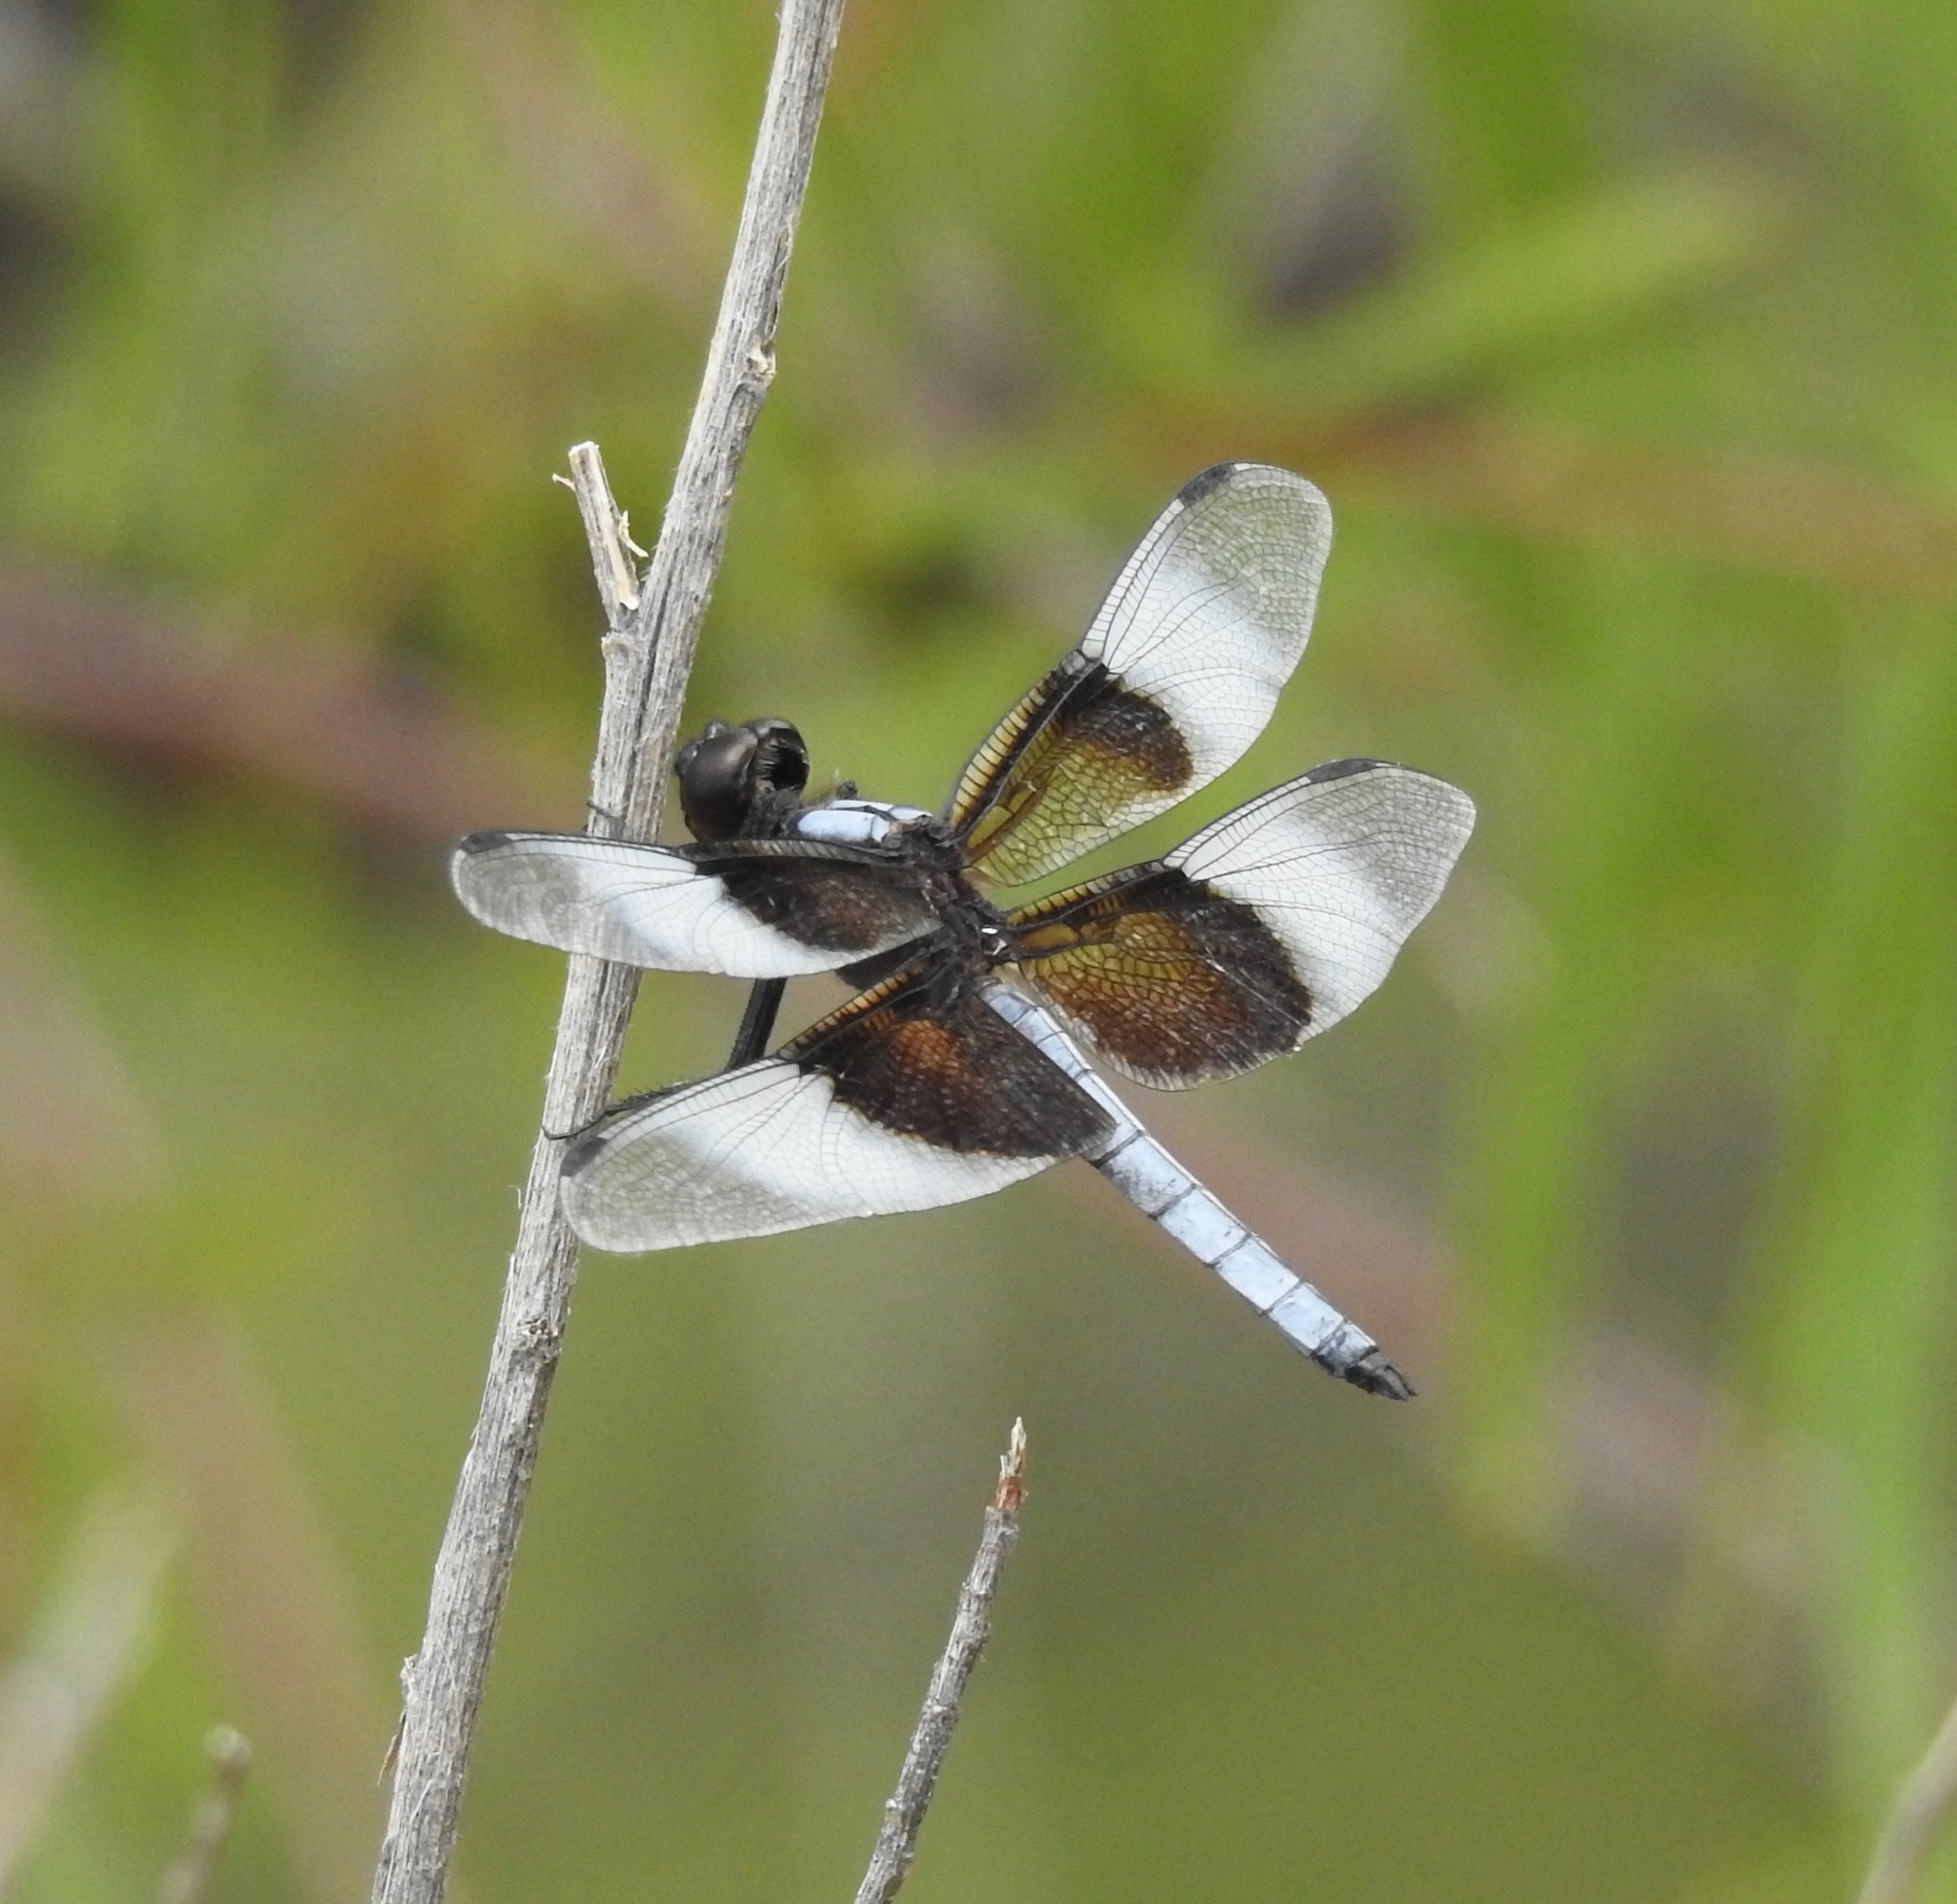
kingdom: Animalia
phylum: Arthropoda
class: Insecta
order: Odonata
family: Libellulidae
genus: Libellula
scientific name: Libellula luctuosa
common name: Widow skimmer
